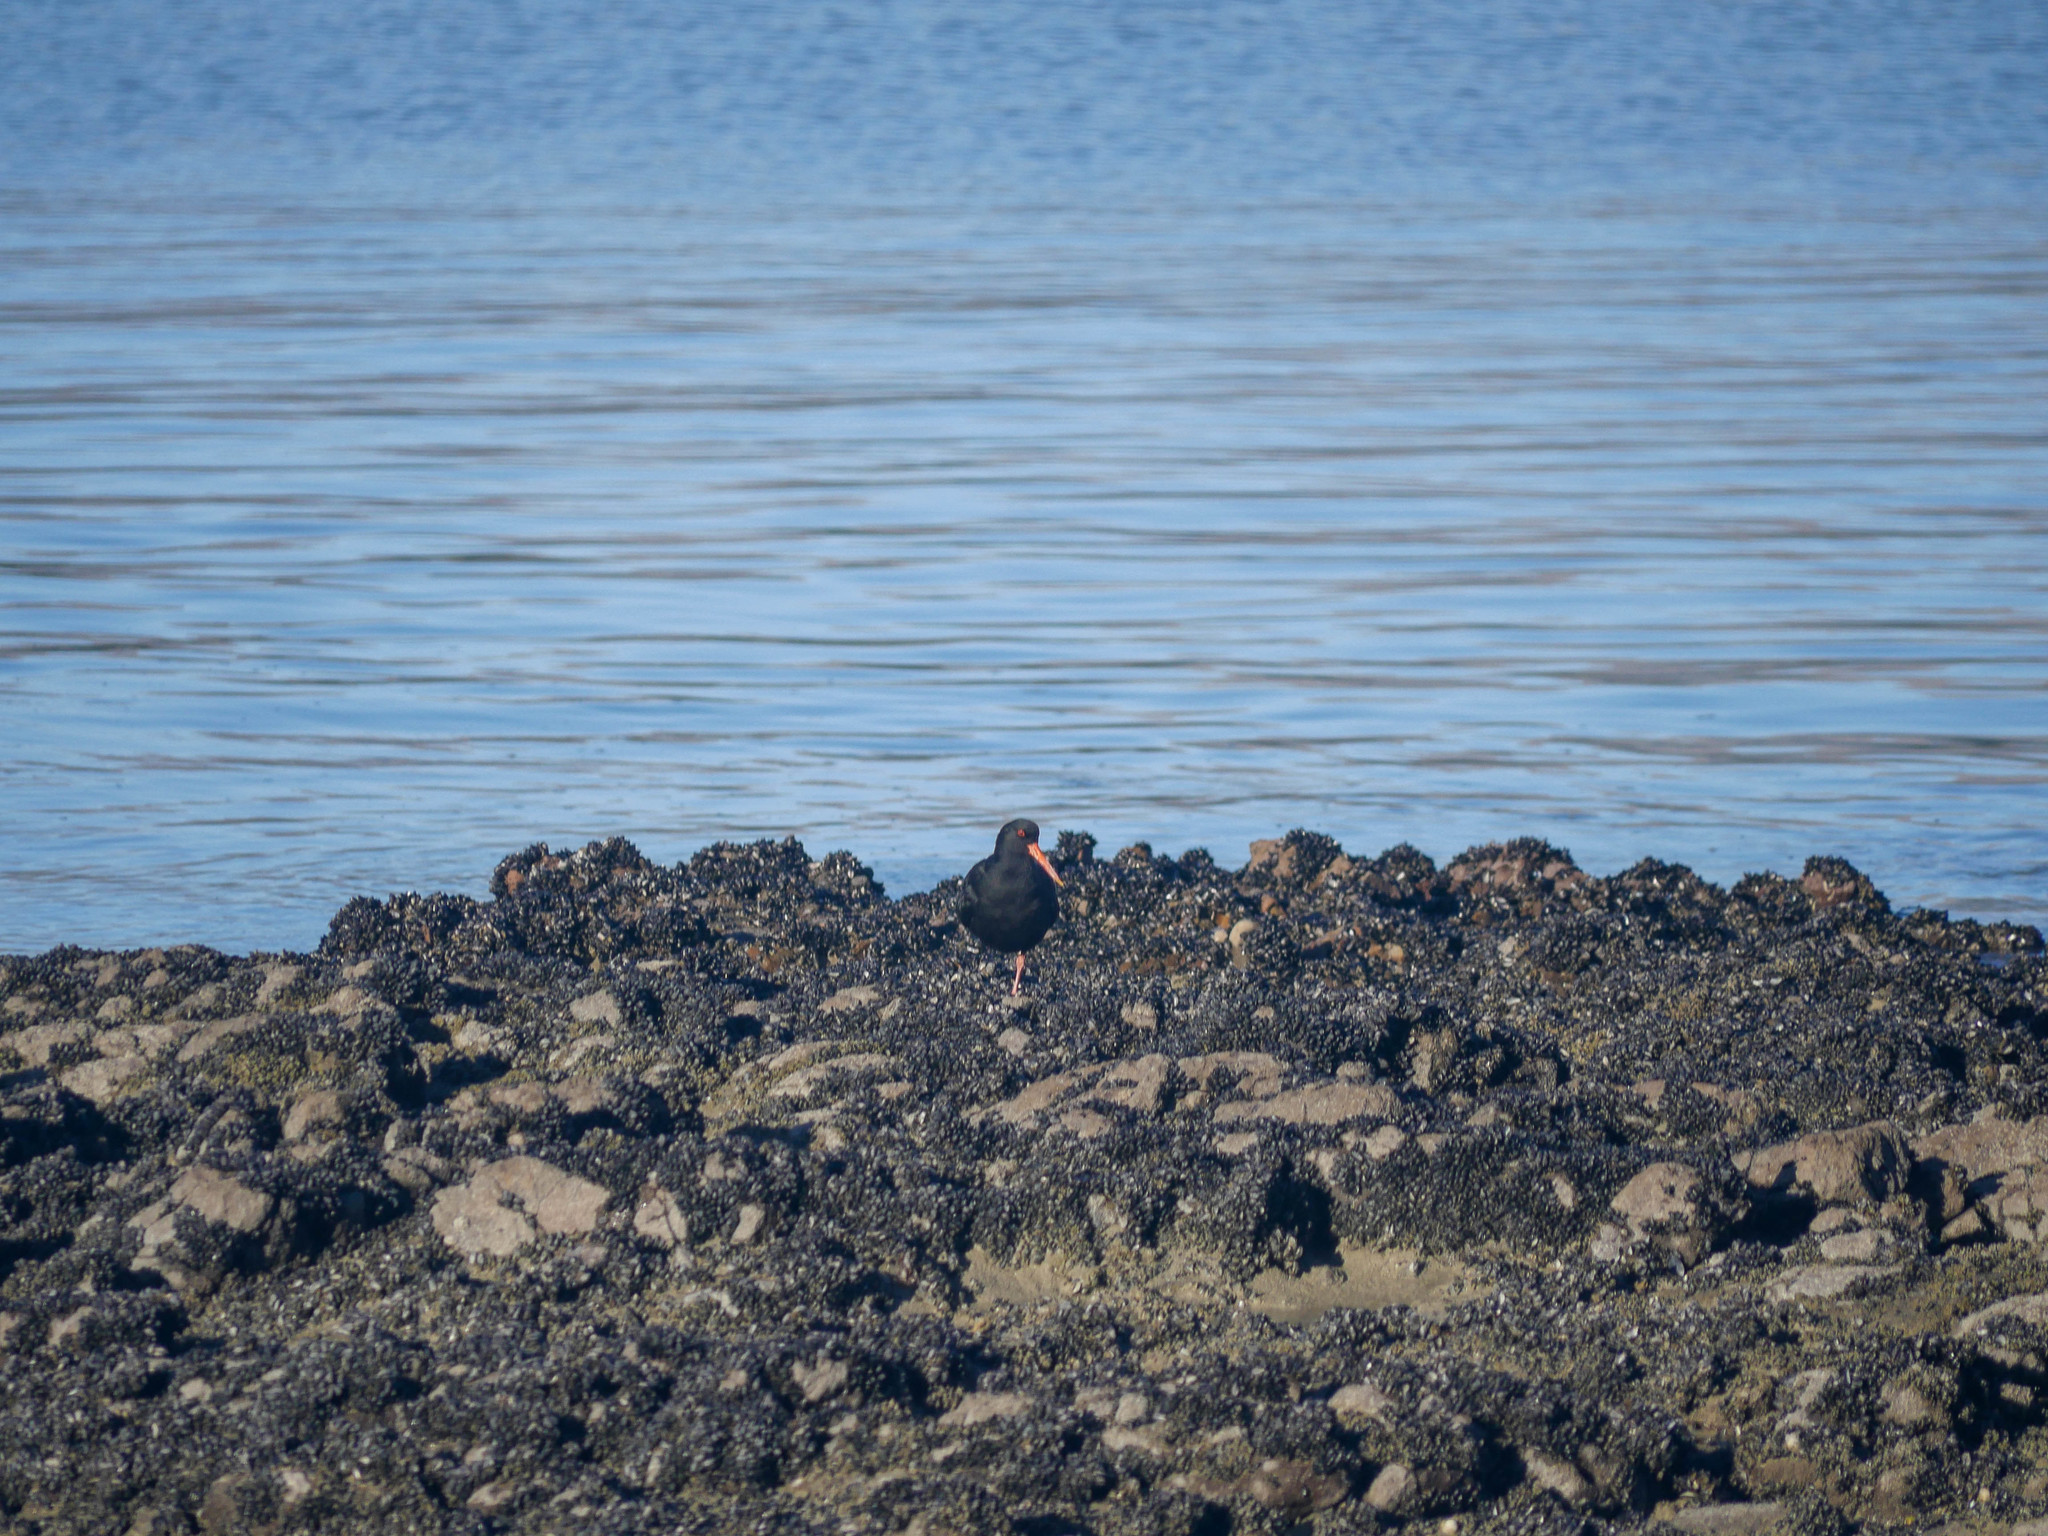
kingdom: Animalia
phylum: Chordata
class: Aves
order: Charadriiformes
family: Haematopodidae
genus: Haematopus
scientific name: Haematopus unicolor
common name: Variable oystercatcher
